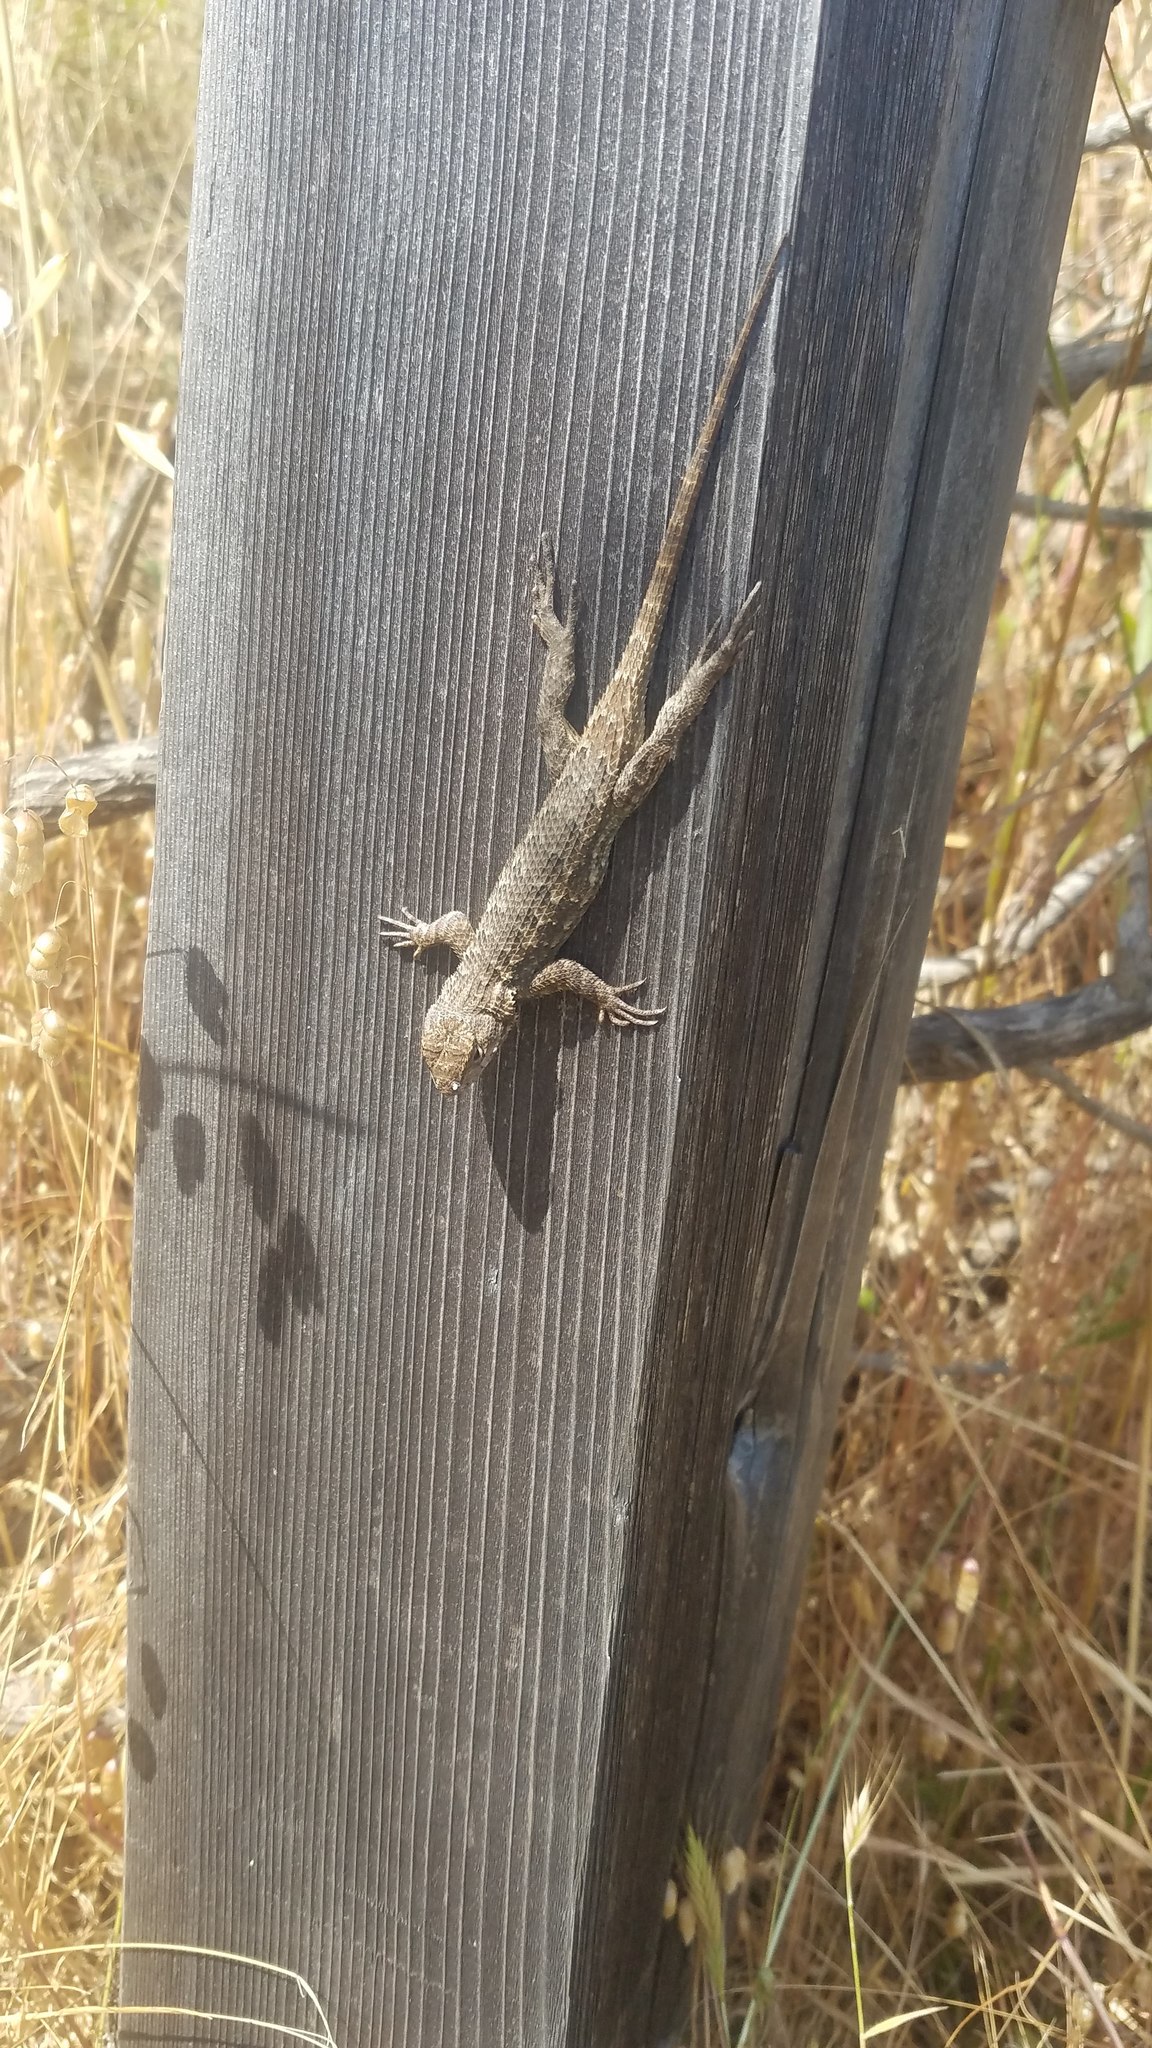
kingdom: Animalia
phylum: Chordata
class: Squamata
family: Phrynosomatidae
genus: Sceloporus
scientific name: Sceloporus occidentalis
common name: Western fence lizard
